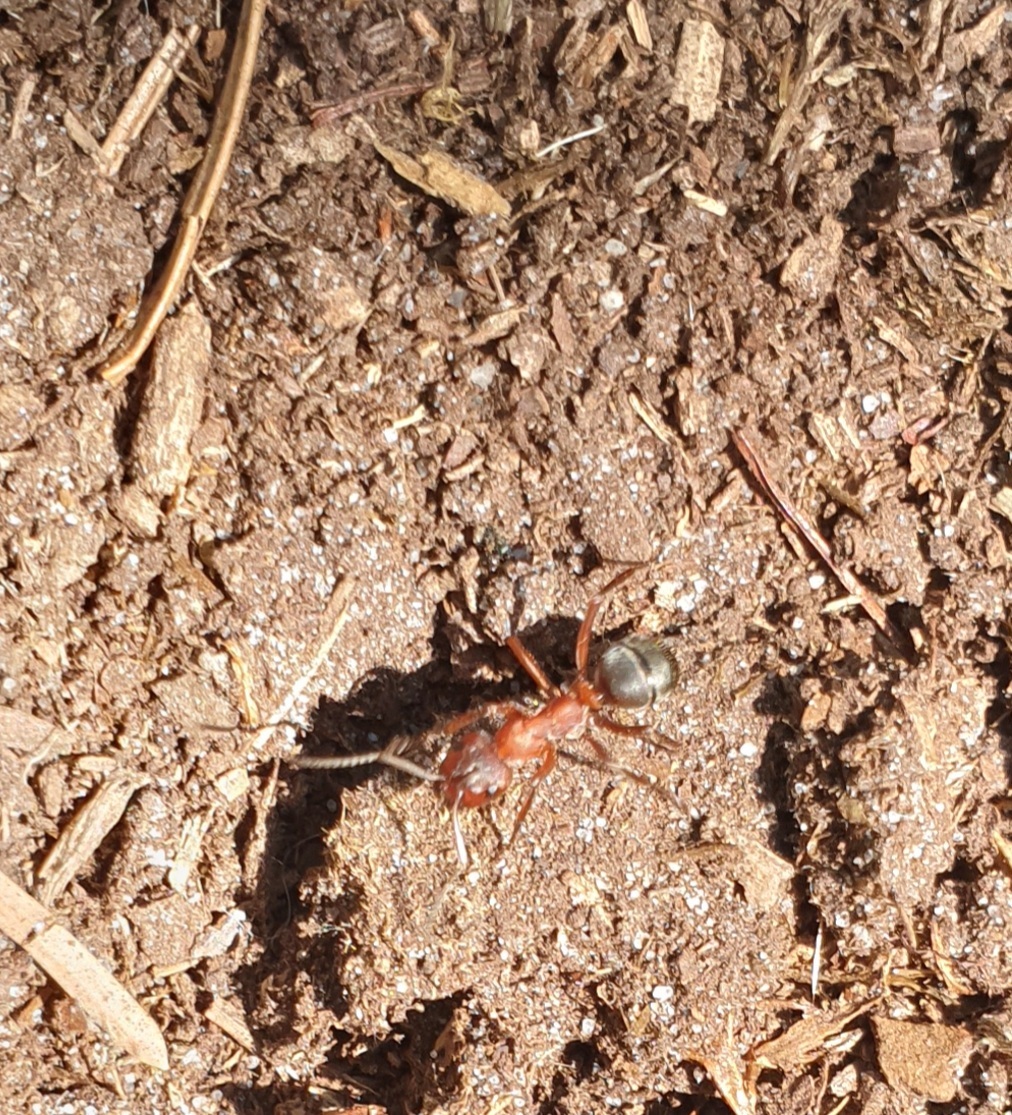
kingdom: Animalia
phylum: Arthropoda
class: Insecta
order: Hymenoptera
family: Formicidae
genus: Formica
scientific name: Formica sanguinea
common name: Blood-red ant
